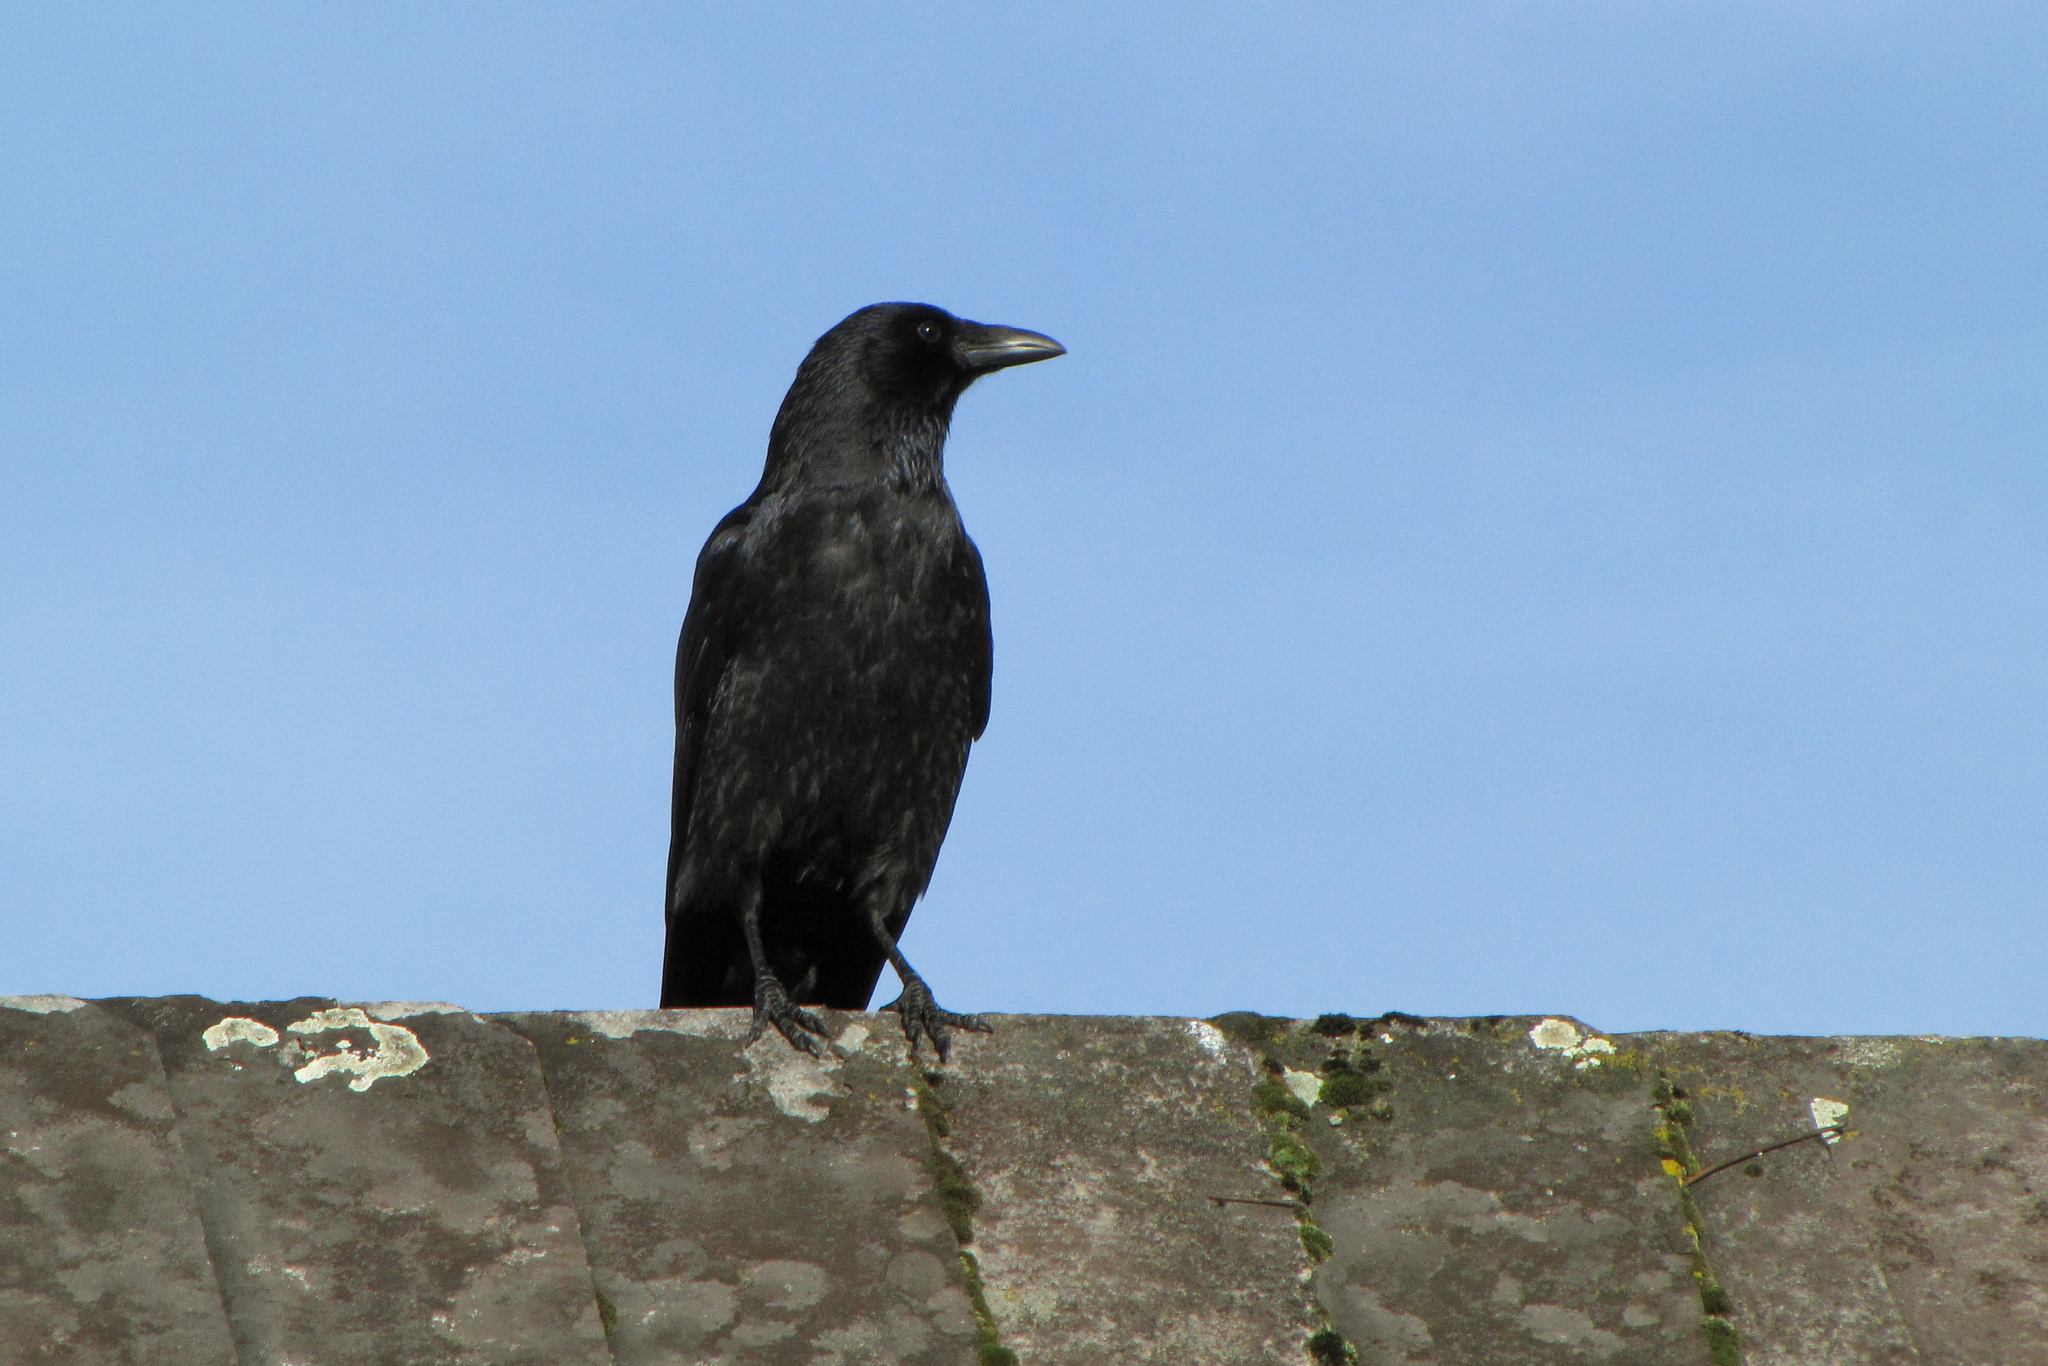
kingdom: Animalia
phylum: Chordata
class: Aves
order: Passeriformes
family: Corvidae
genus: Corvus
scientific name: Corvus corone
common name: Carrion crow
